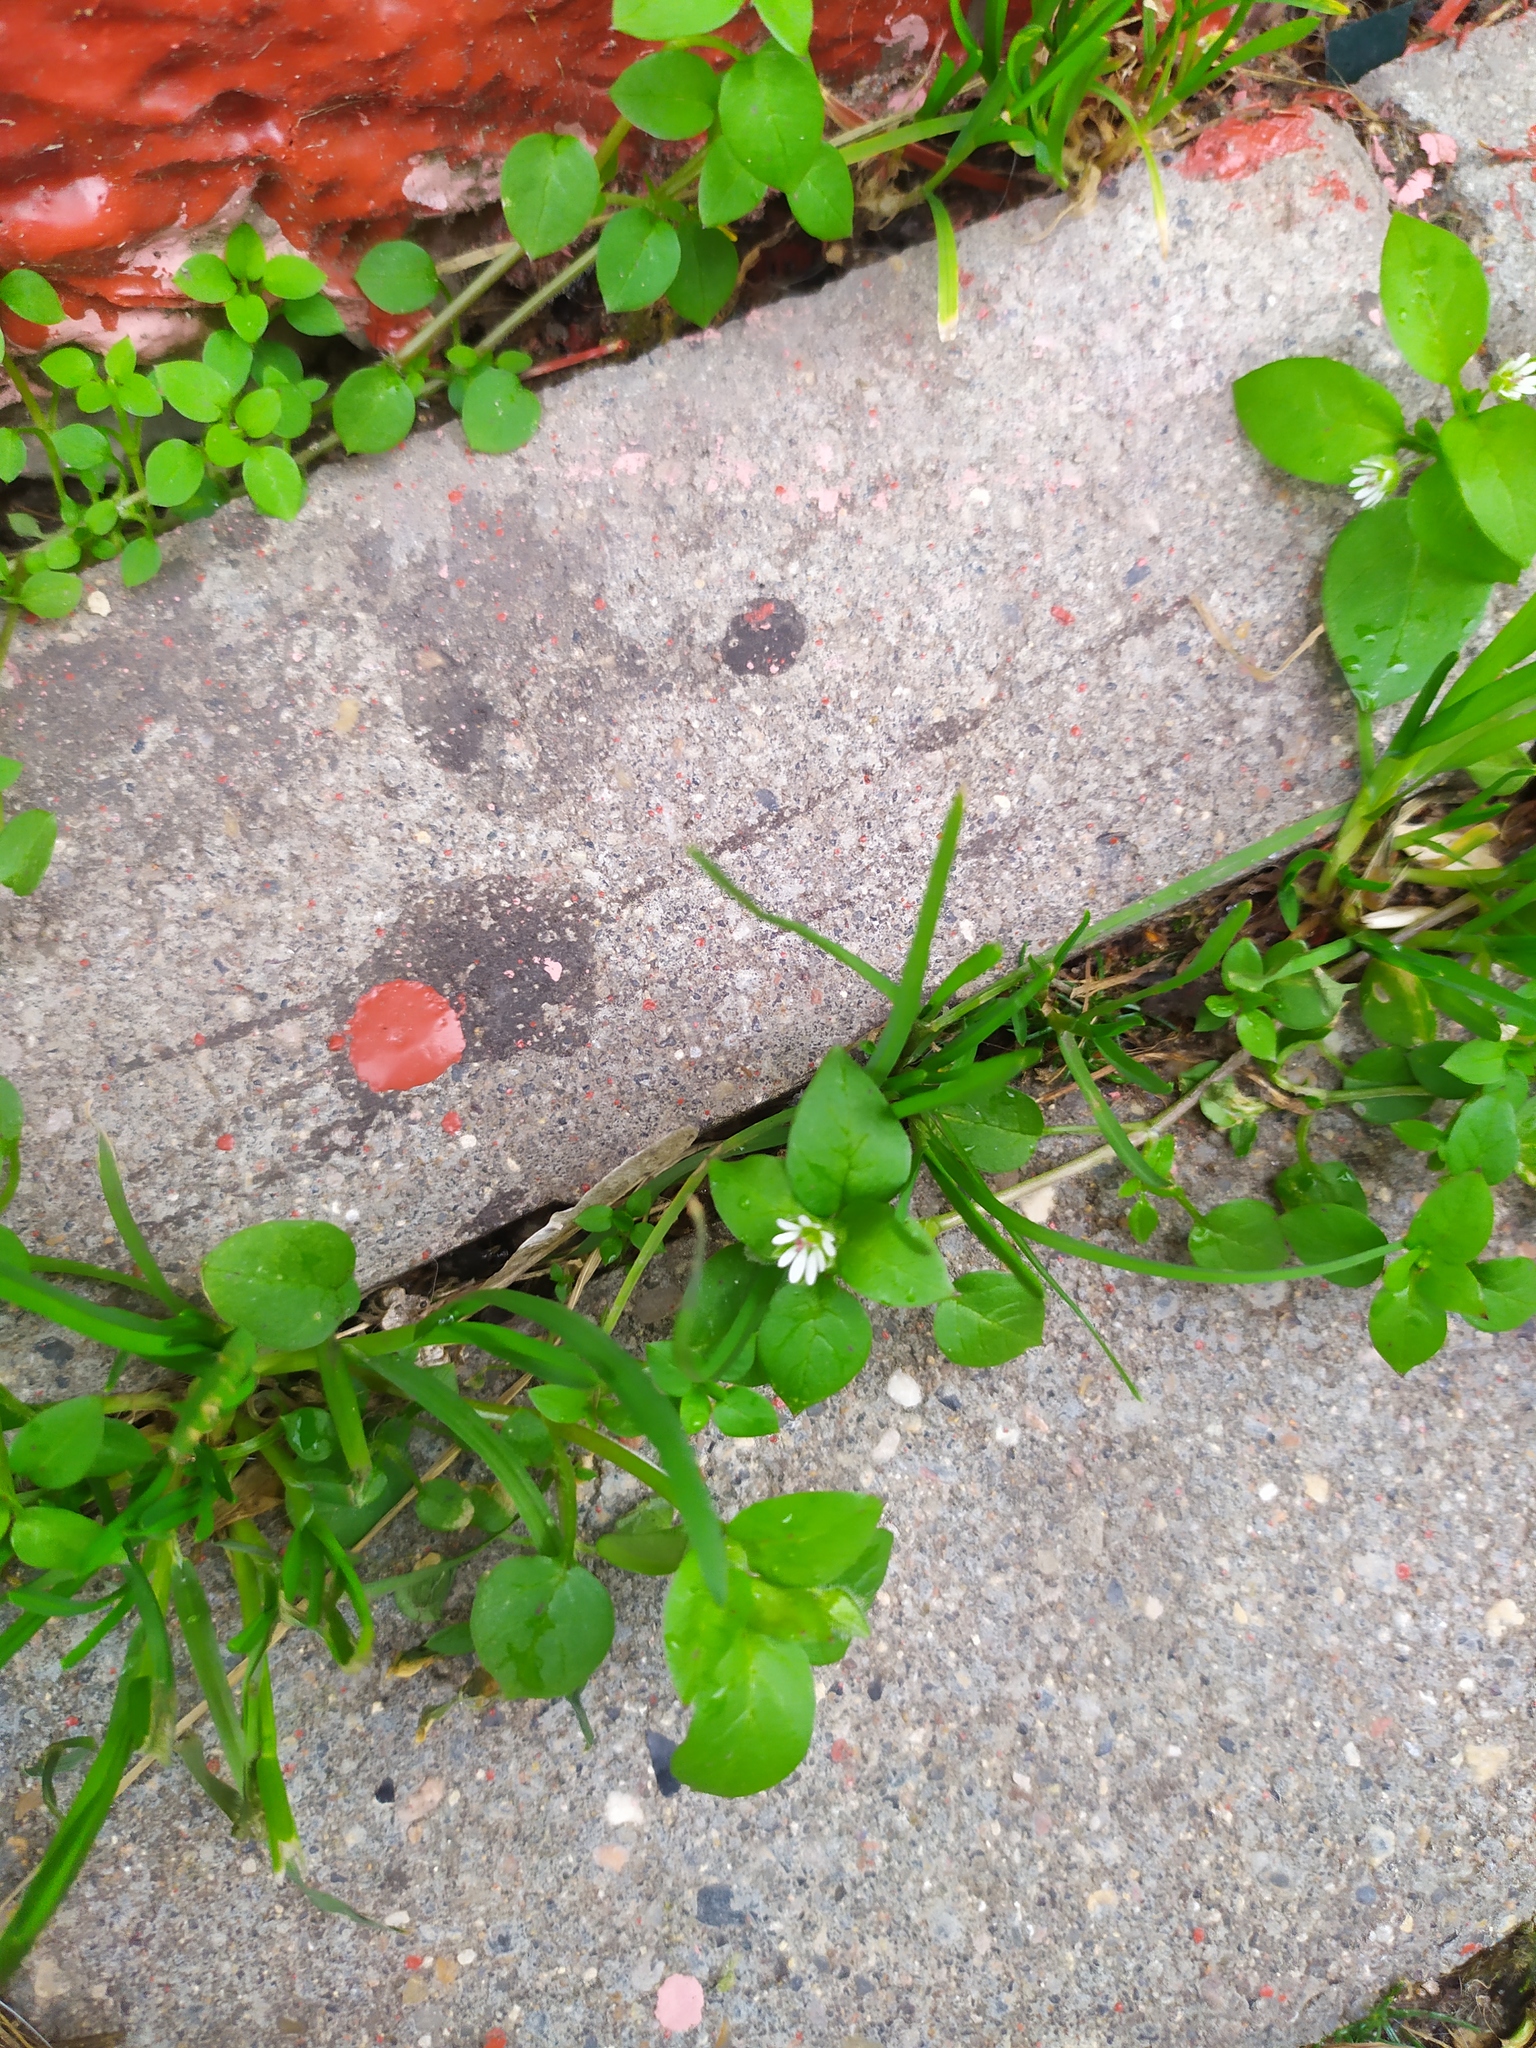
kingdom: Plantae
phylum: Tracheophyta
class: Magnoliopsida
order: Caryophyllales
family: Caryophyllaceae
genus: Stellaria
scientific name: Stellaria media
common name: Common chickweed
